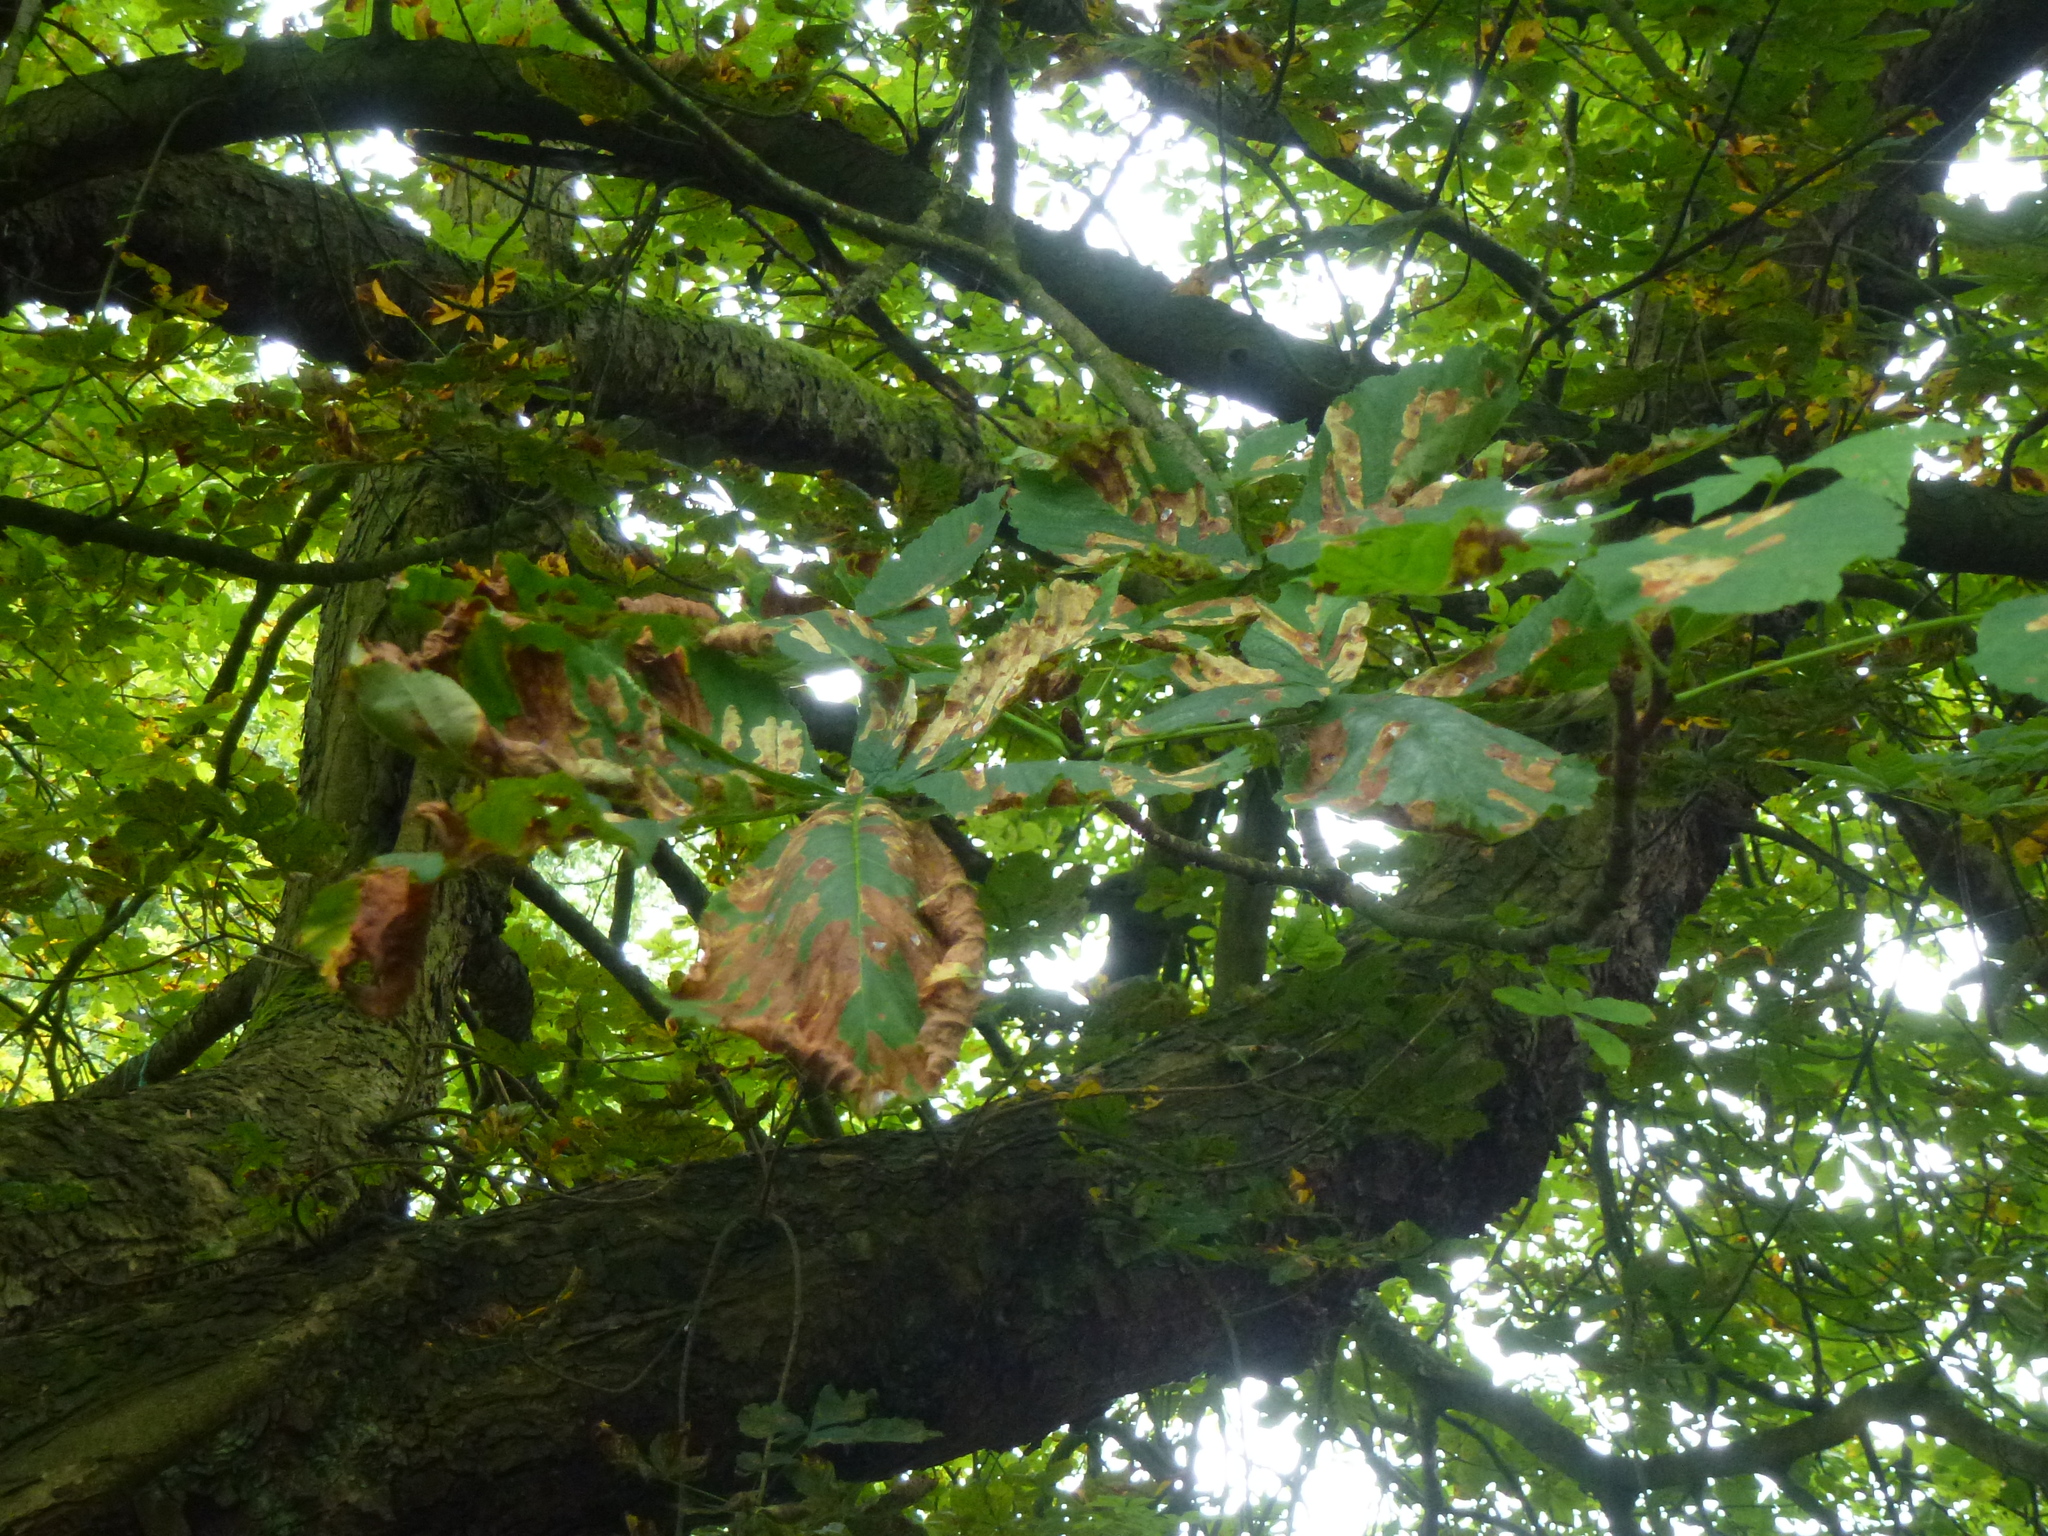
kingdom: Animalia
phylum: Arthropoda
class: Insecta
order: Lepidoptera
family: Gracillariidae
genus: Cameraria
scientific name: Cameraria ohridella
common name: Horse-chestnut leaf-miner
